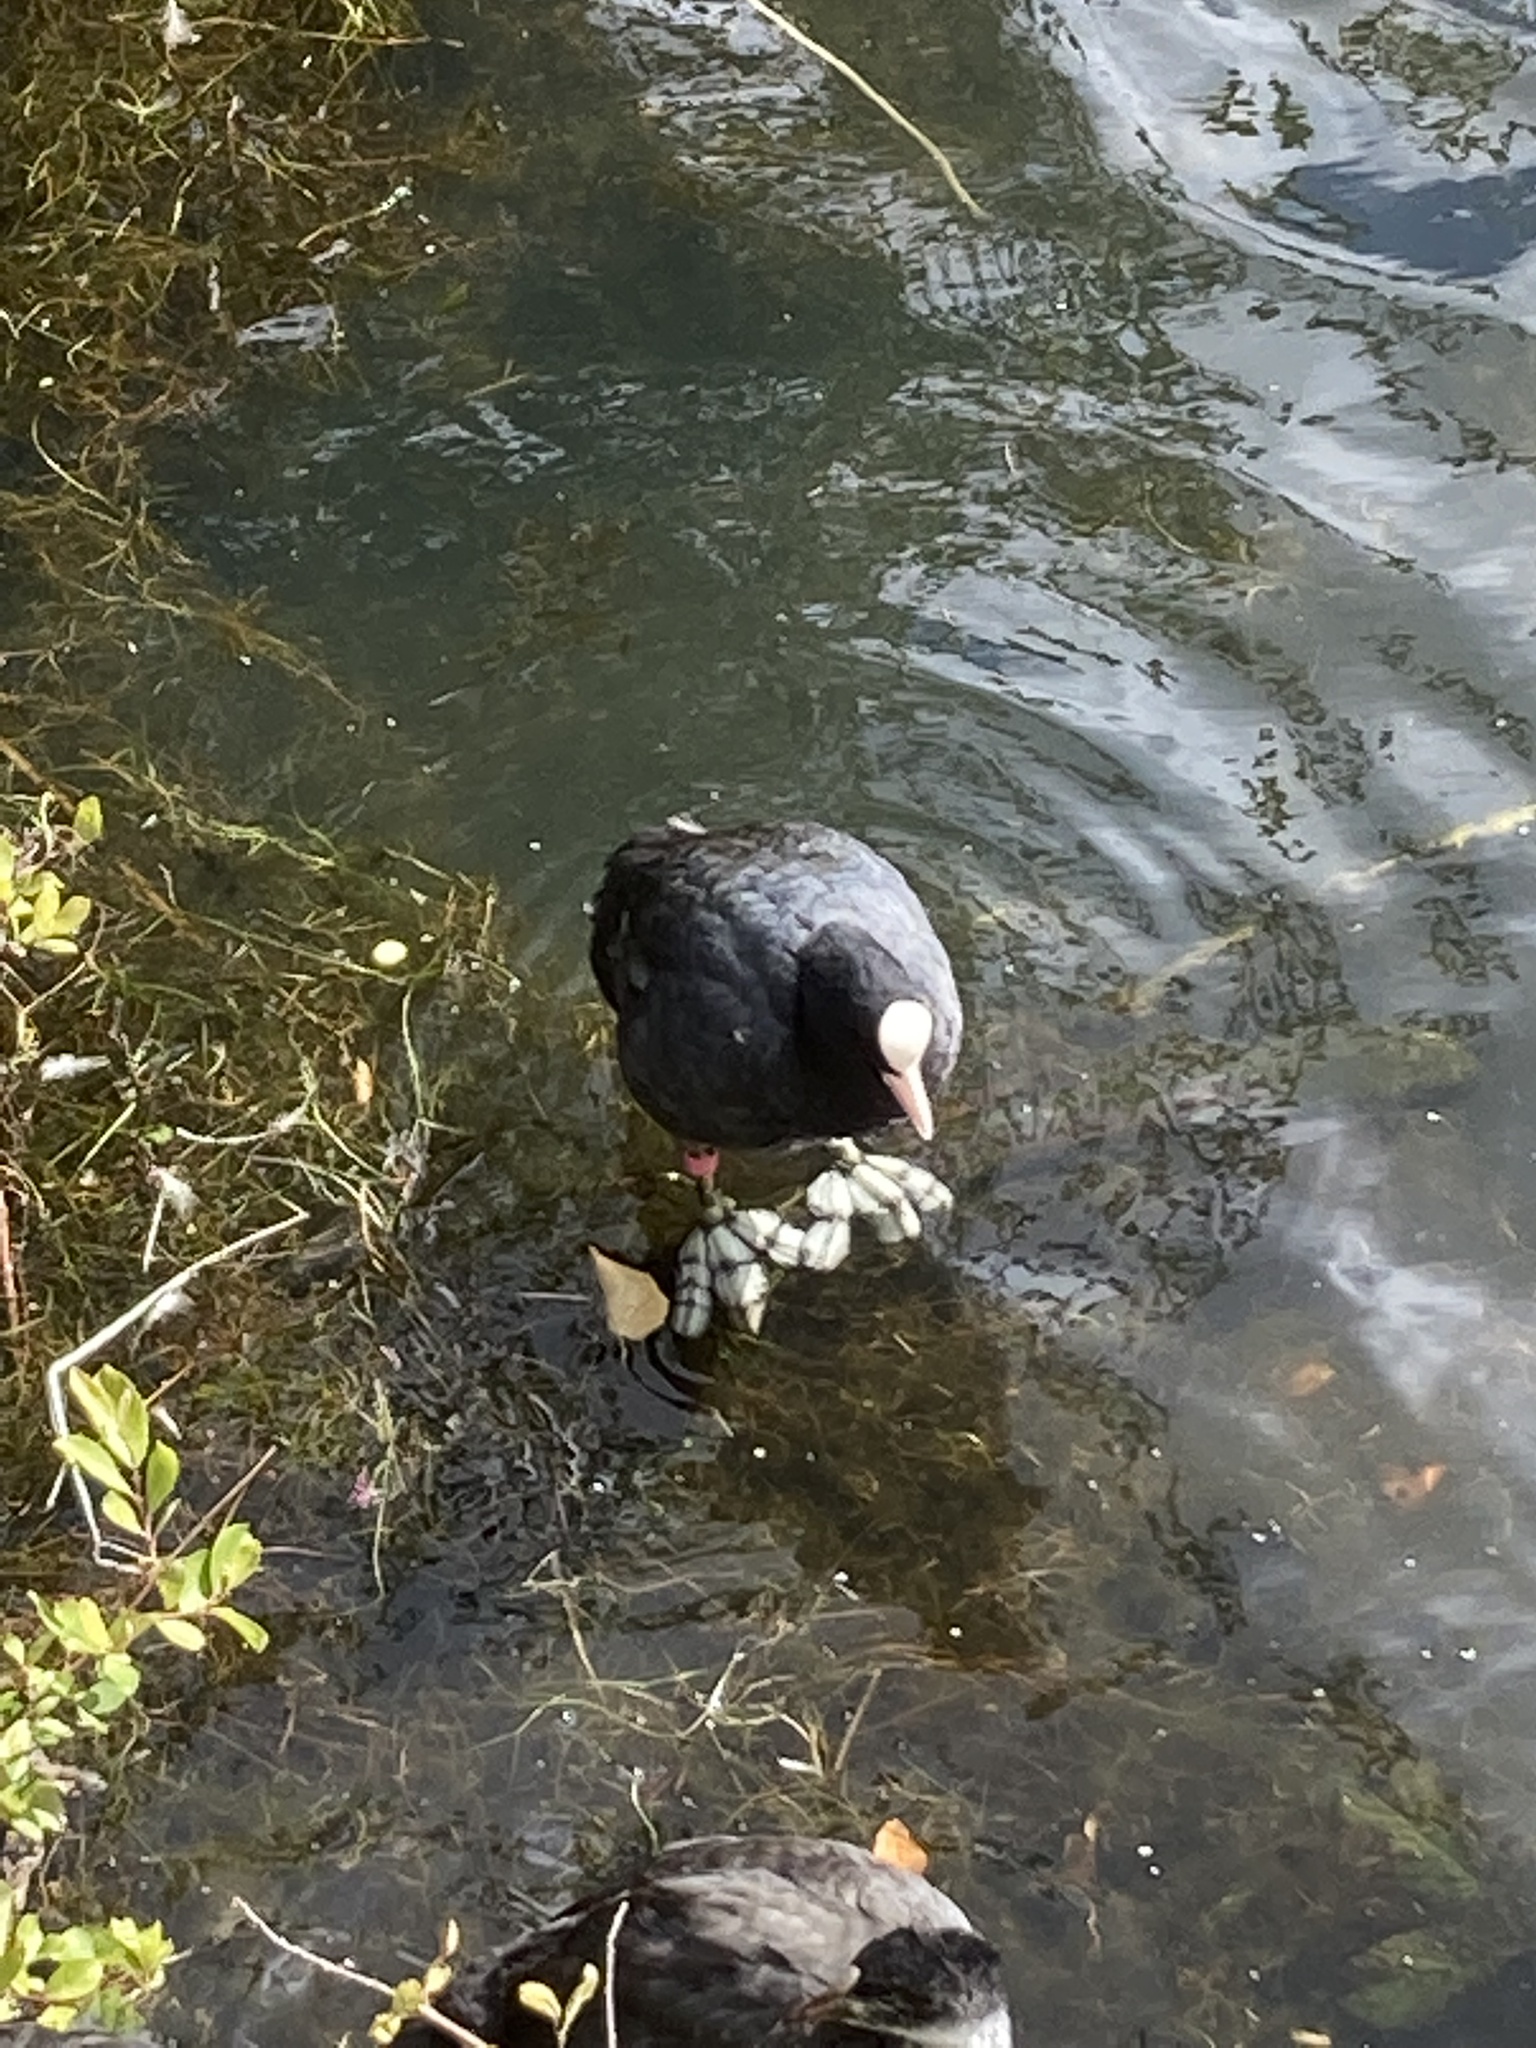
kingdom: Animalia
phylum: Chordata
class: Aves
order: Gruiformes
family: Rallidae
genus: Fulica
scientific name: Fulica atra
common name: Eurasian coot
